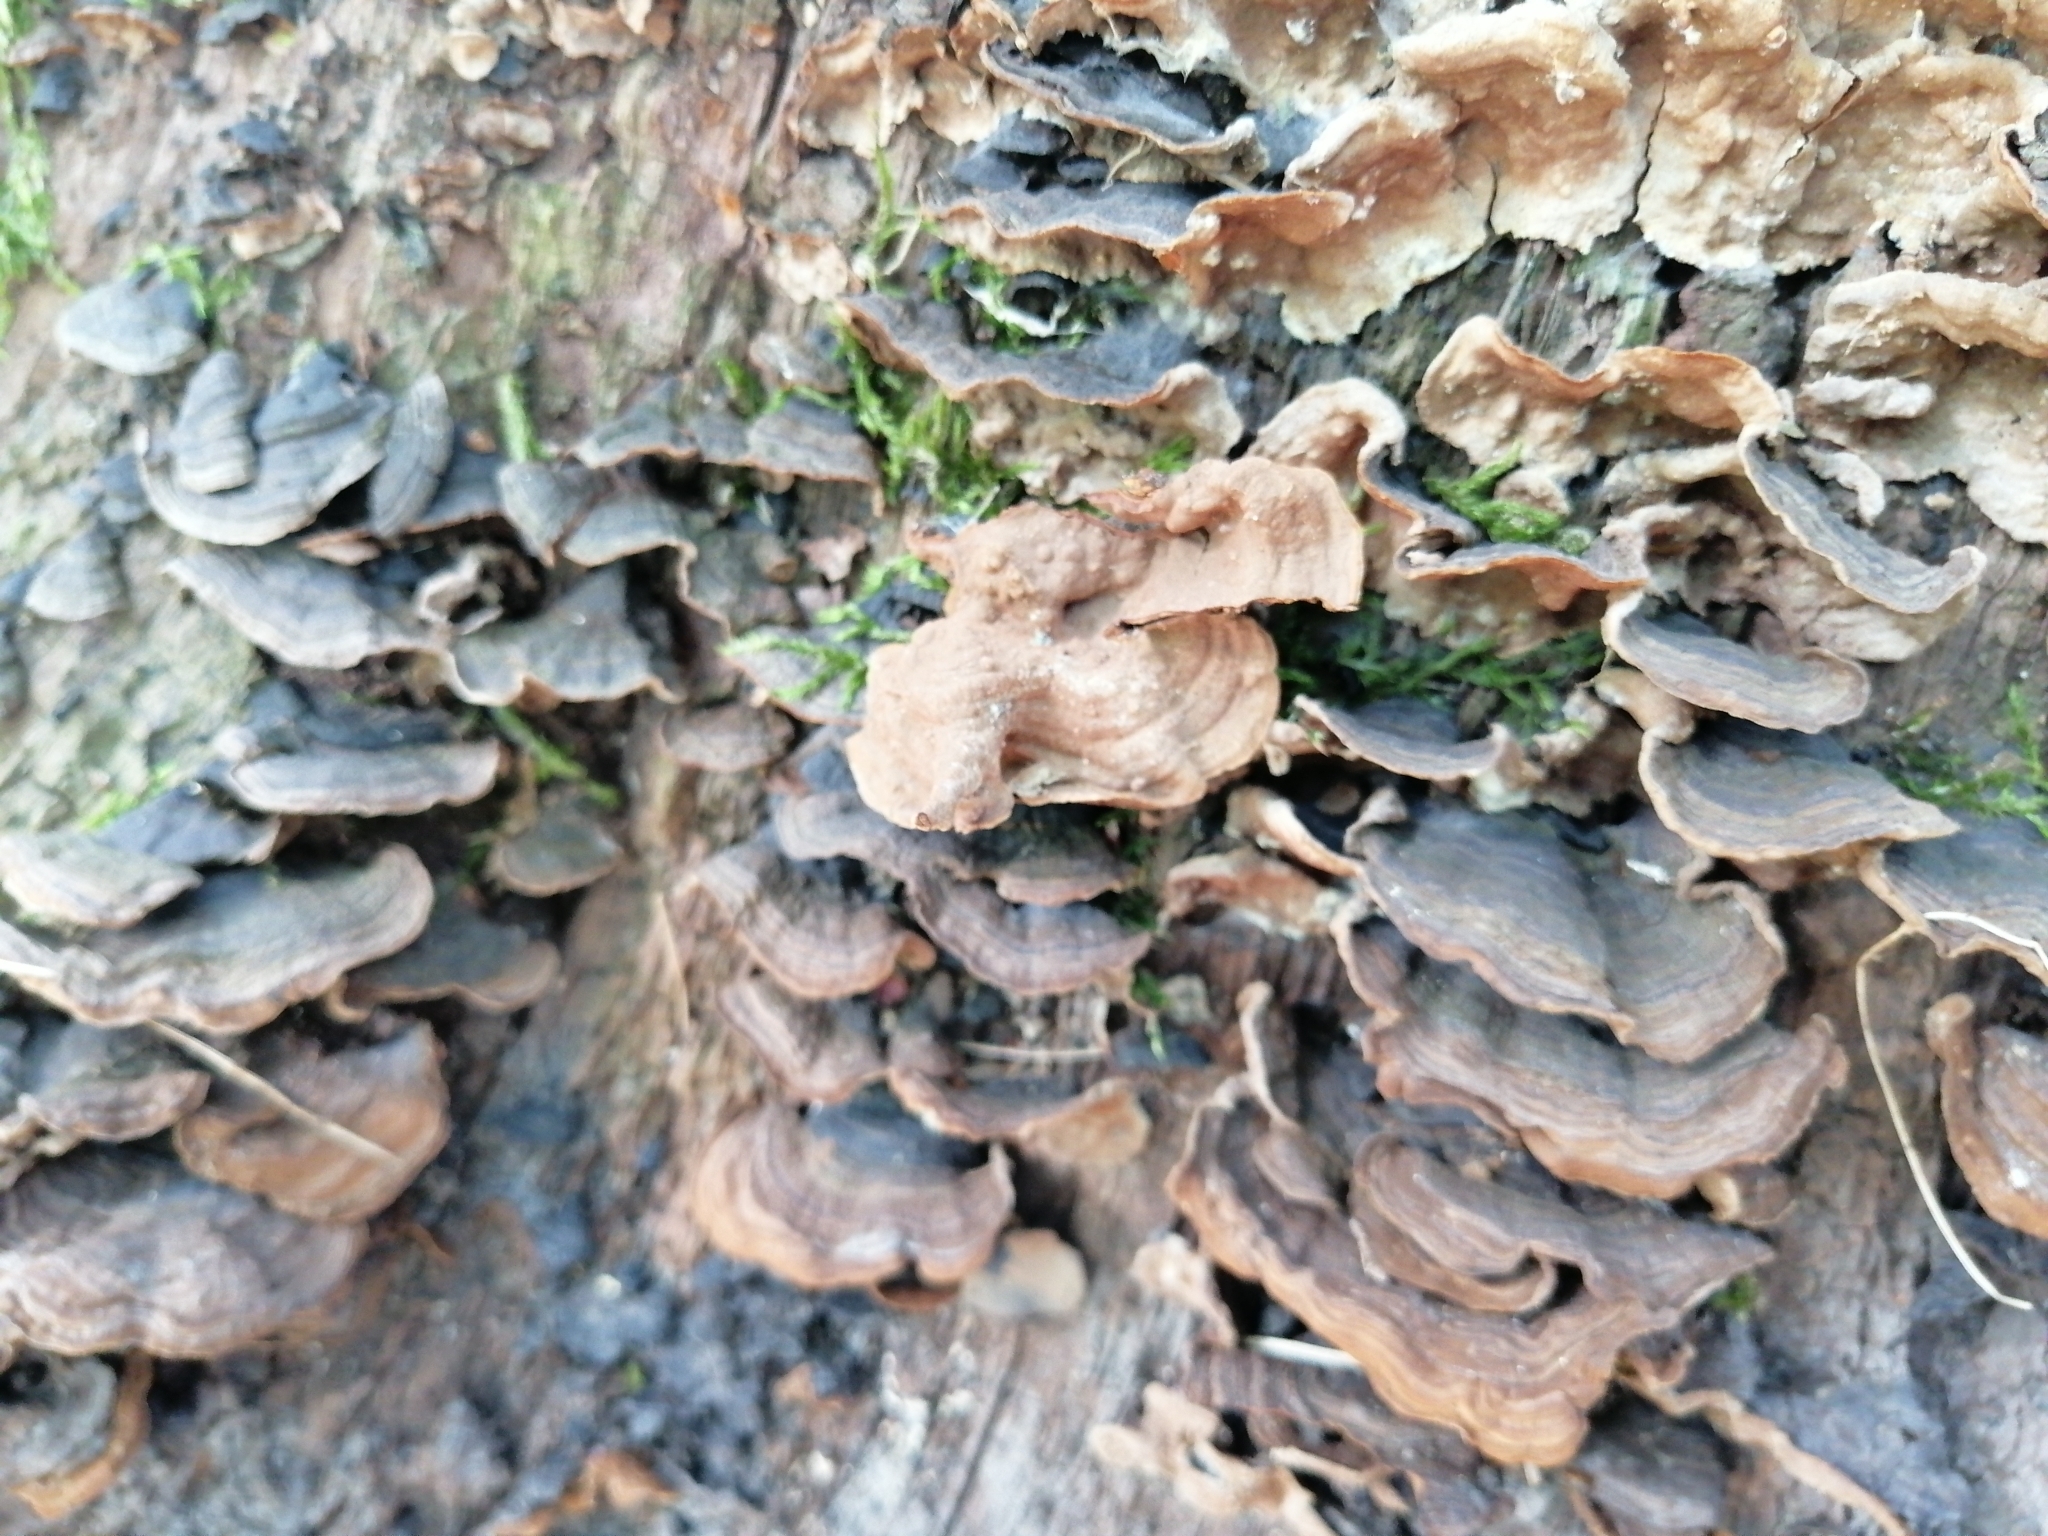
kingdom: Fungi
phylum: Basidiomycota
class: Agaricomycetes
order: Hymenochaetales
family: Hymenochaetaceae
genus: Hymenochaete
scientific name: Hymenochaete rubiginosa
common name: Oak curtain crust
